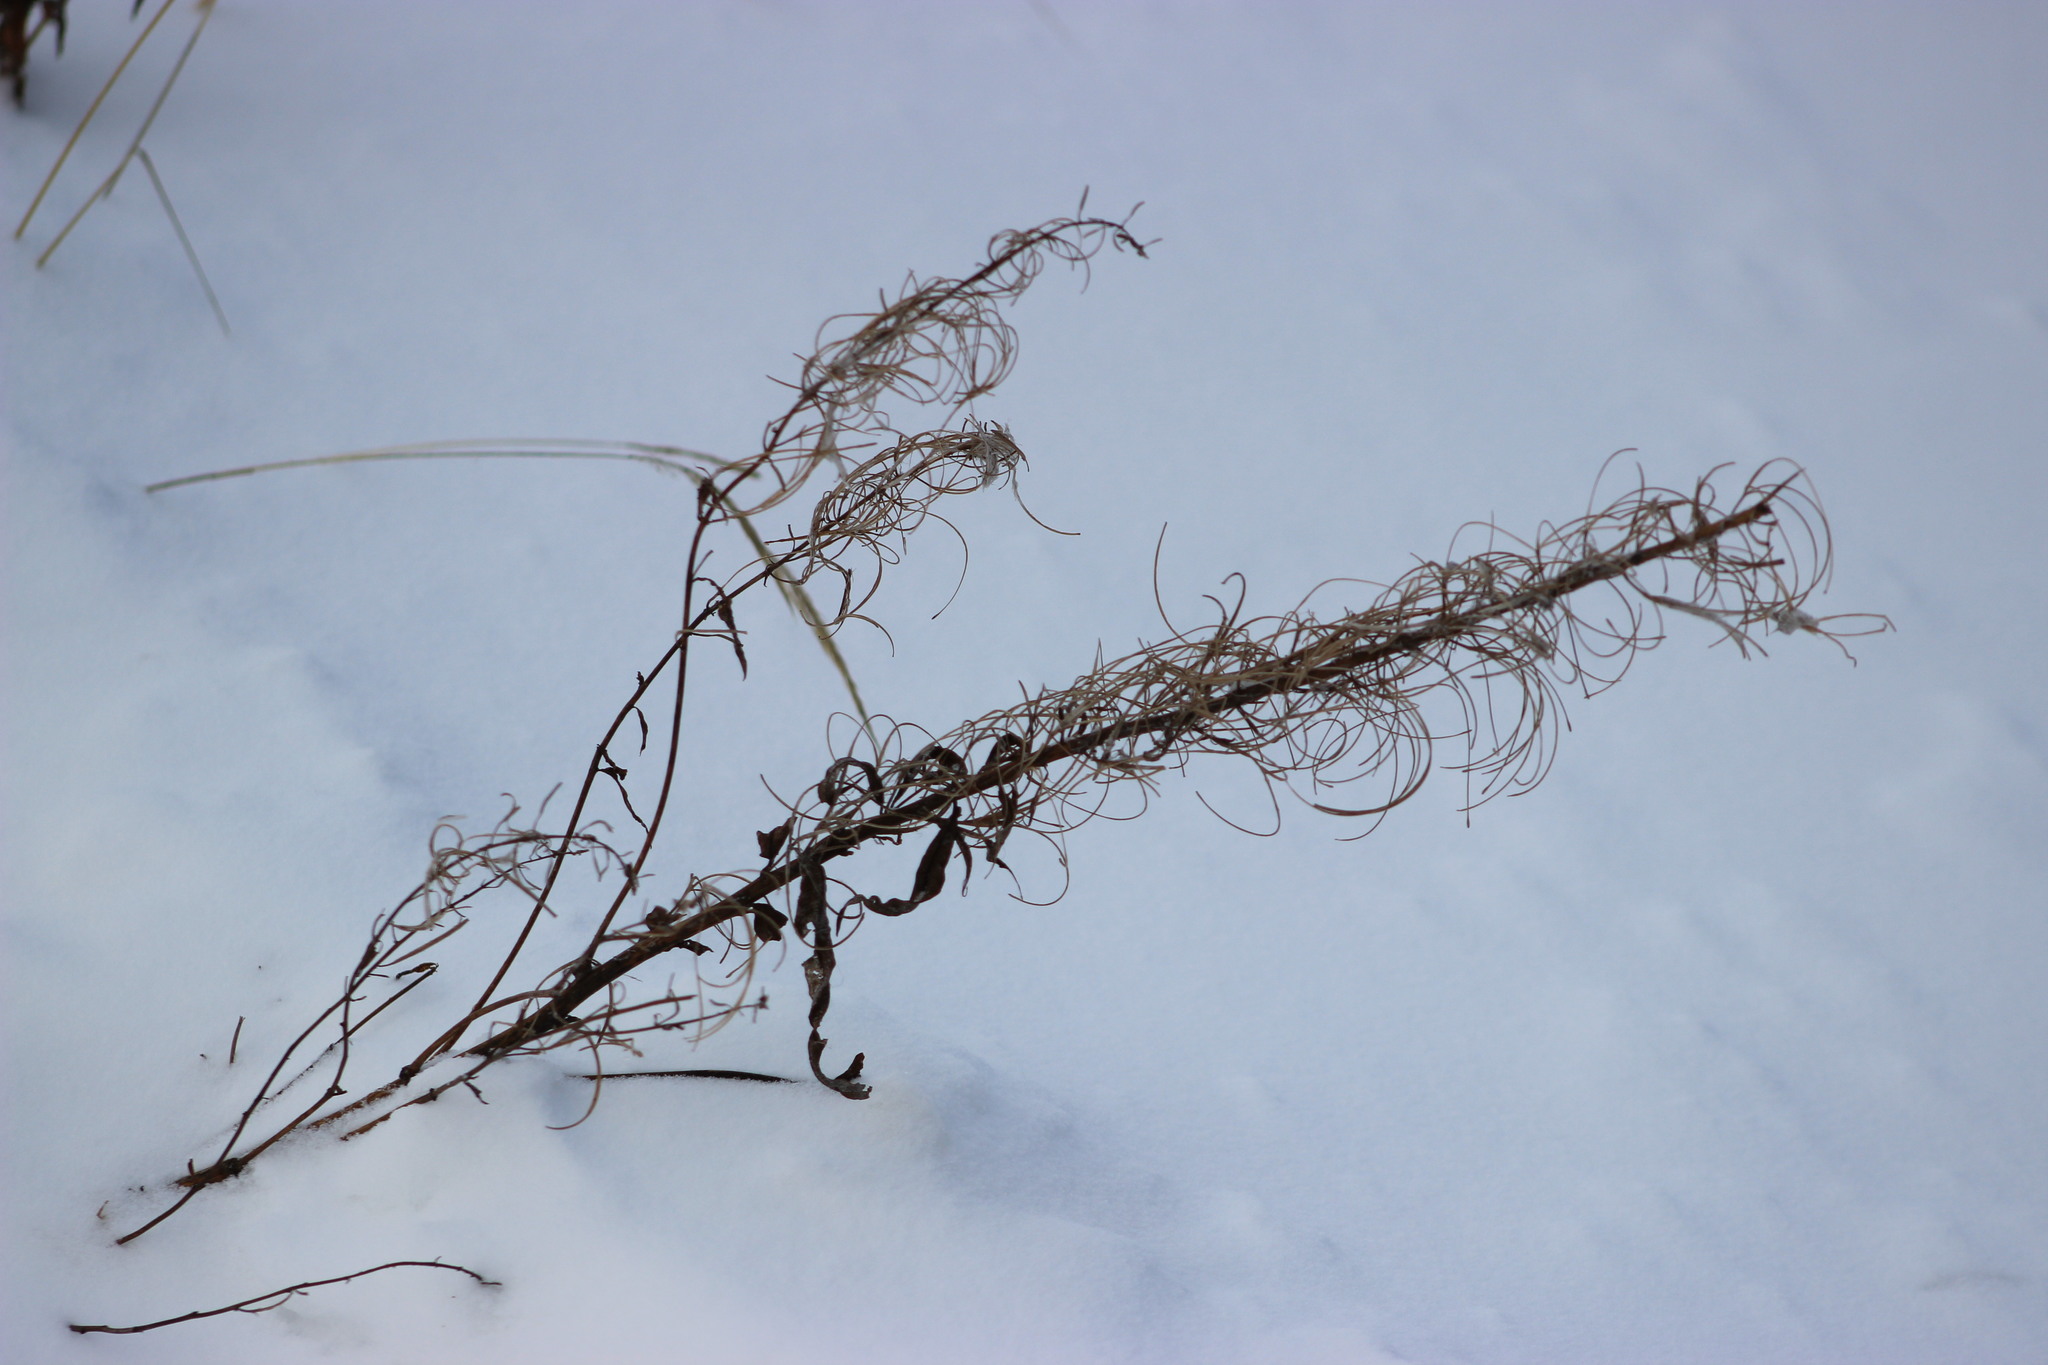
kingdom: Plantae
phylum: Tracheophyta
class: Magnoliopsida
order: Myrtales
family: Onagraceae
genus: Chamaenerion
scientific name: Chamaenerion angustifolium
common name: Fireweed
